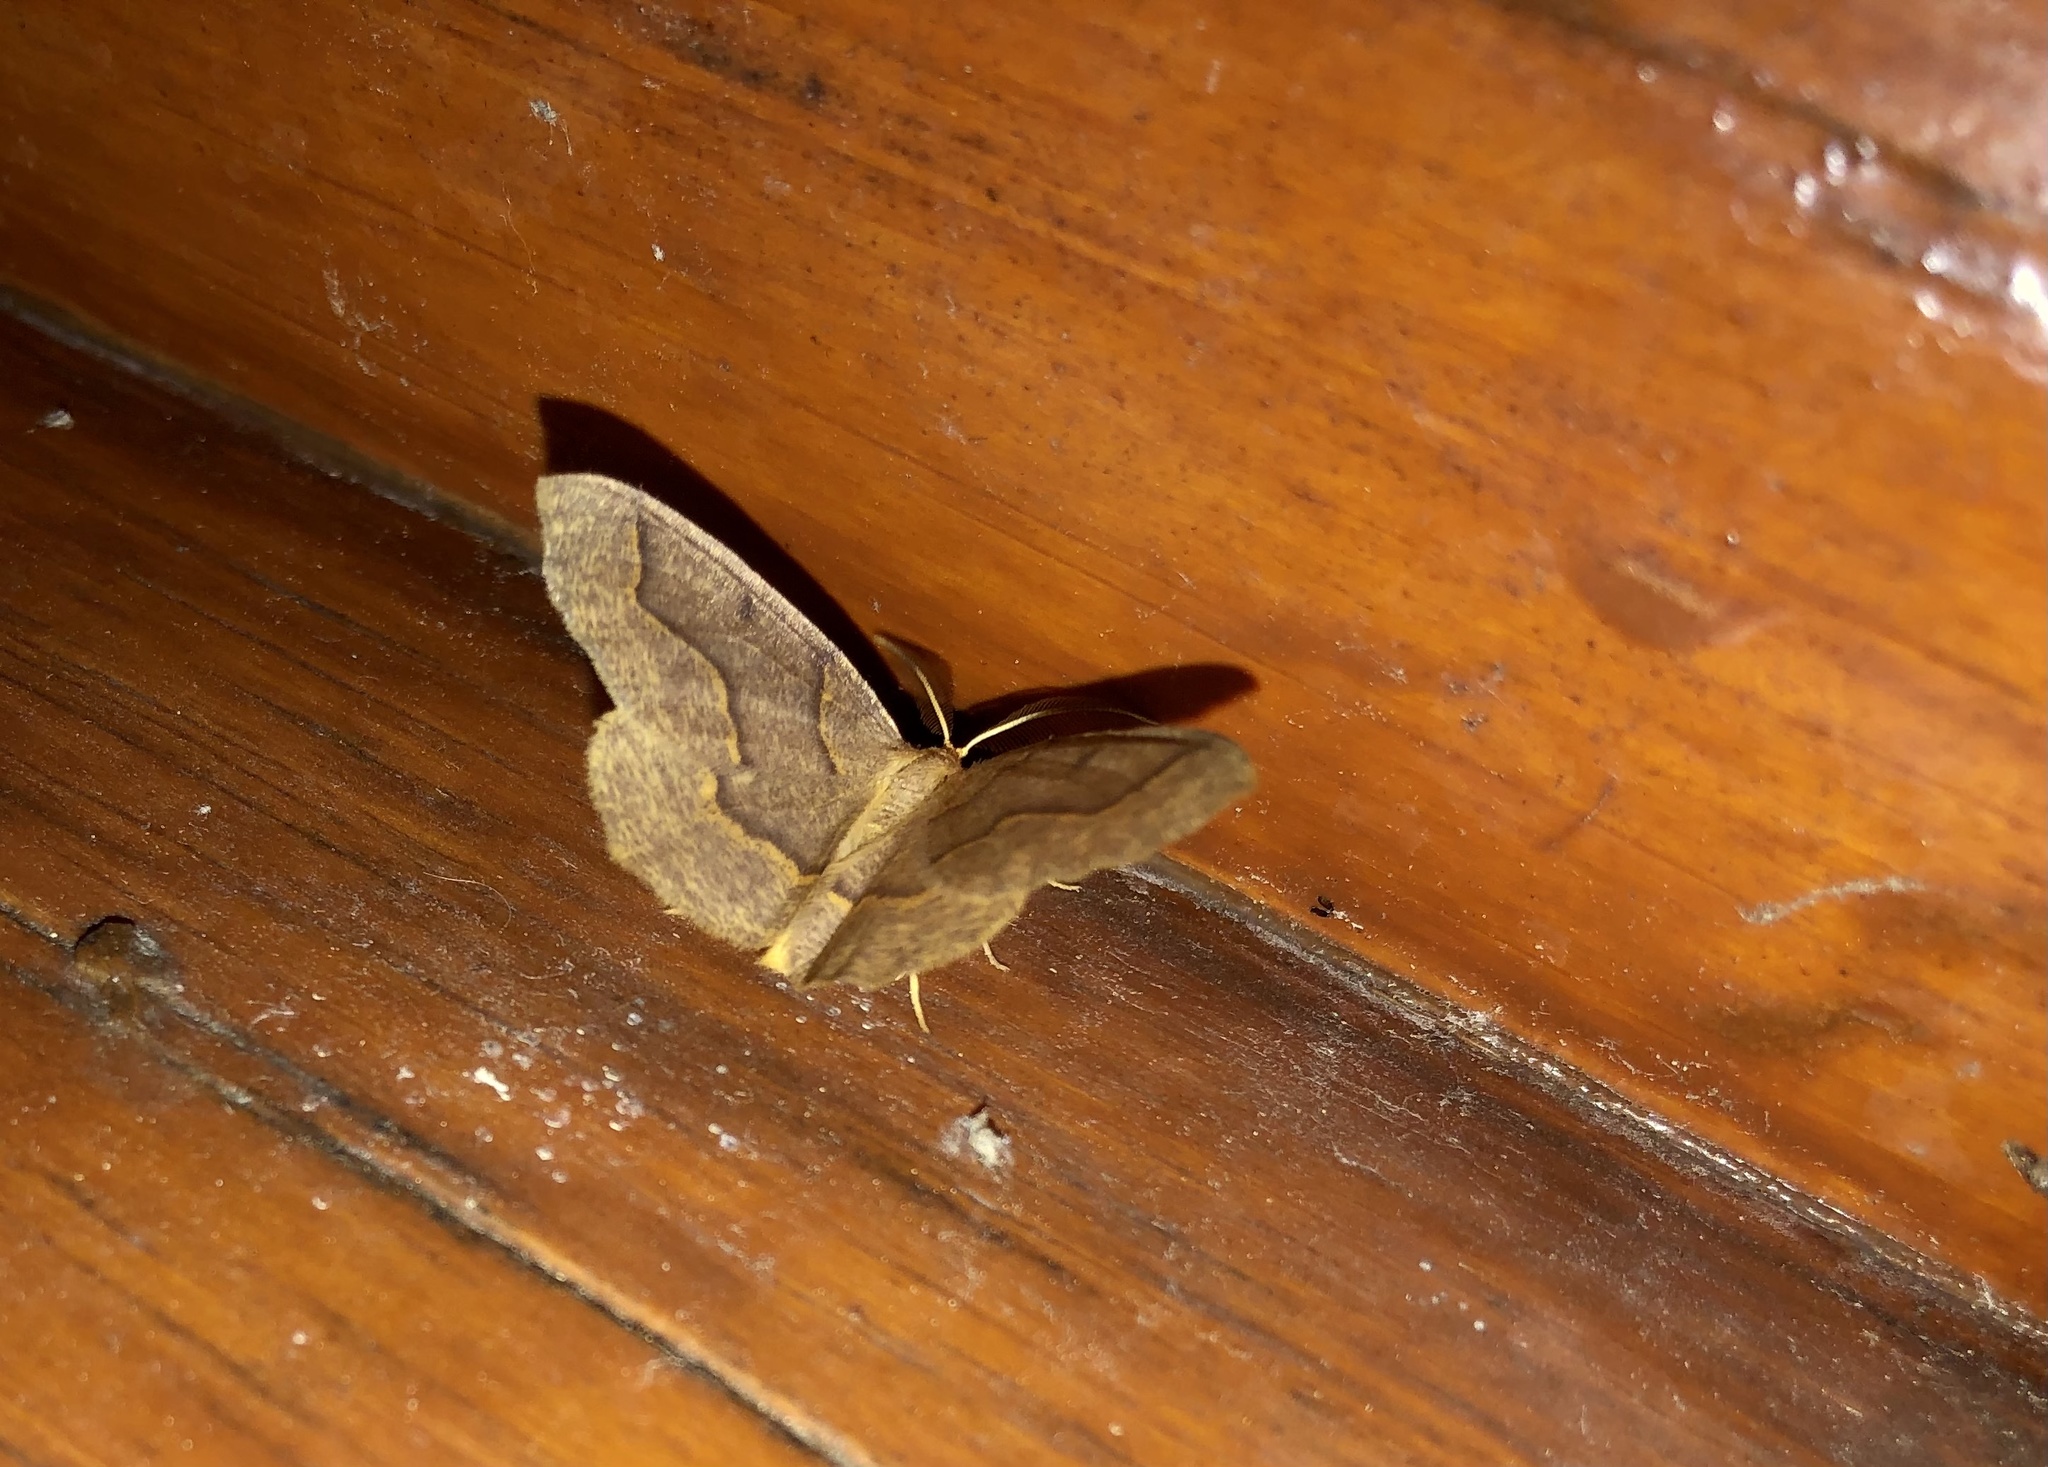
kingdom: Animalia
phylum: Arthropoda
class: Insecta
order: Lepidoptera
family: Geometridae
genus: Lambdina
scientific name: Lambdina fiscellaria
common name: Hemlock looper
